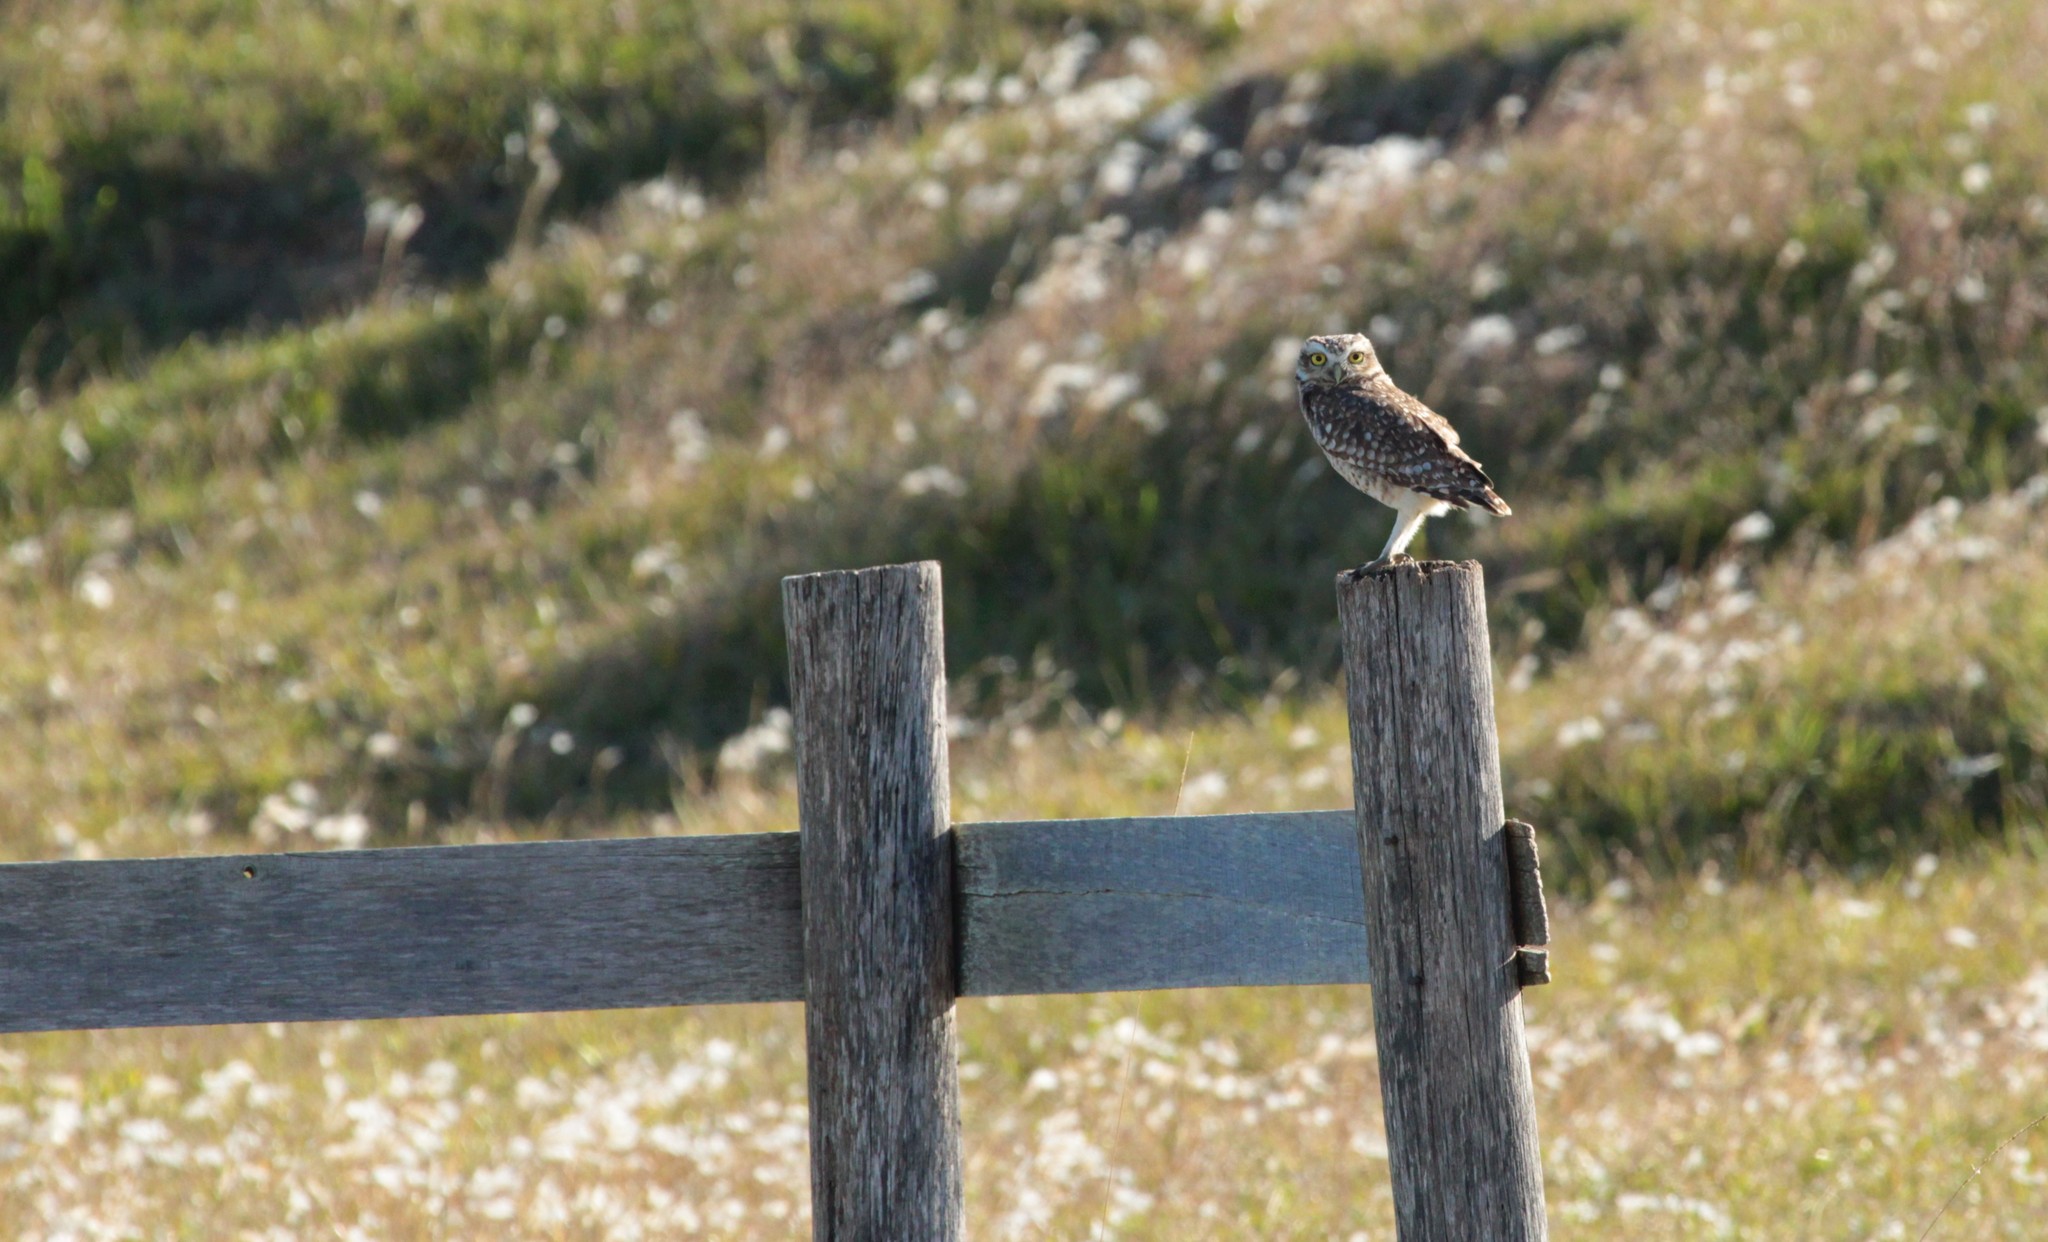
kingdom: Animalia
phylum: Chordata
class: Aves
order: Strigiformes
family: Strigidae
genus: Athene
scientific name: Athene cunicularia
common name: Burrowing owl
